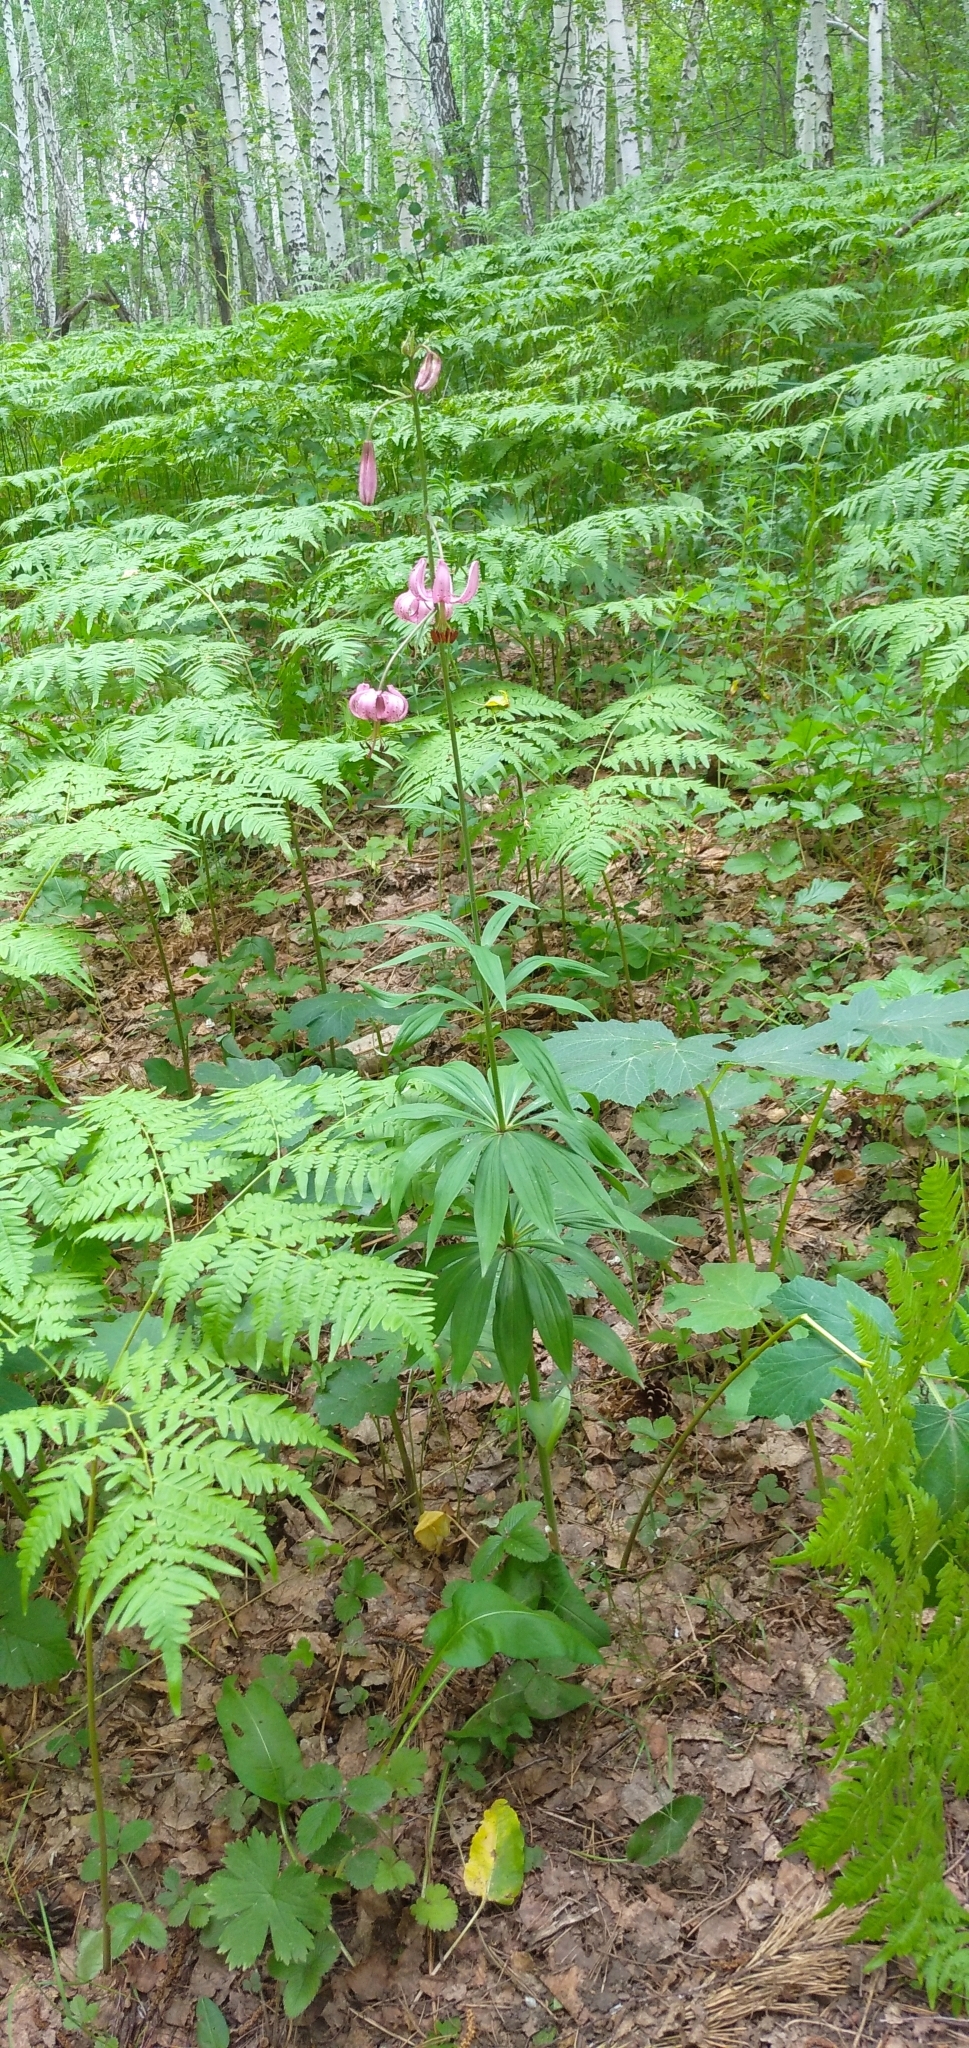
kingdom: Plantae
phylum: Tracheophyta
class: Liliopsida
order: Liliales
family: Liliaceae
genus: Lilium
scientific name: Lilium martagon
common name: Martagon lily
